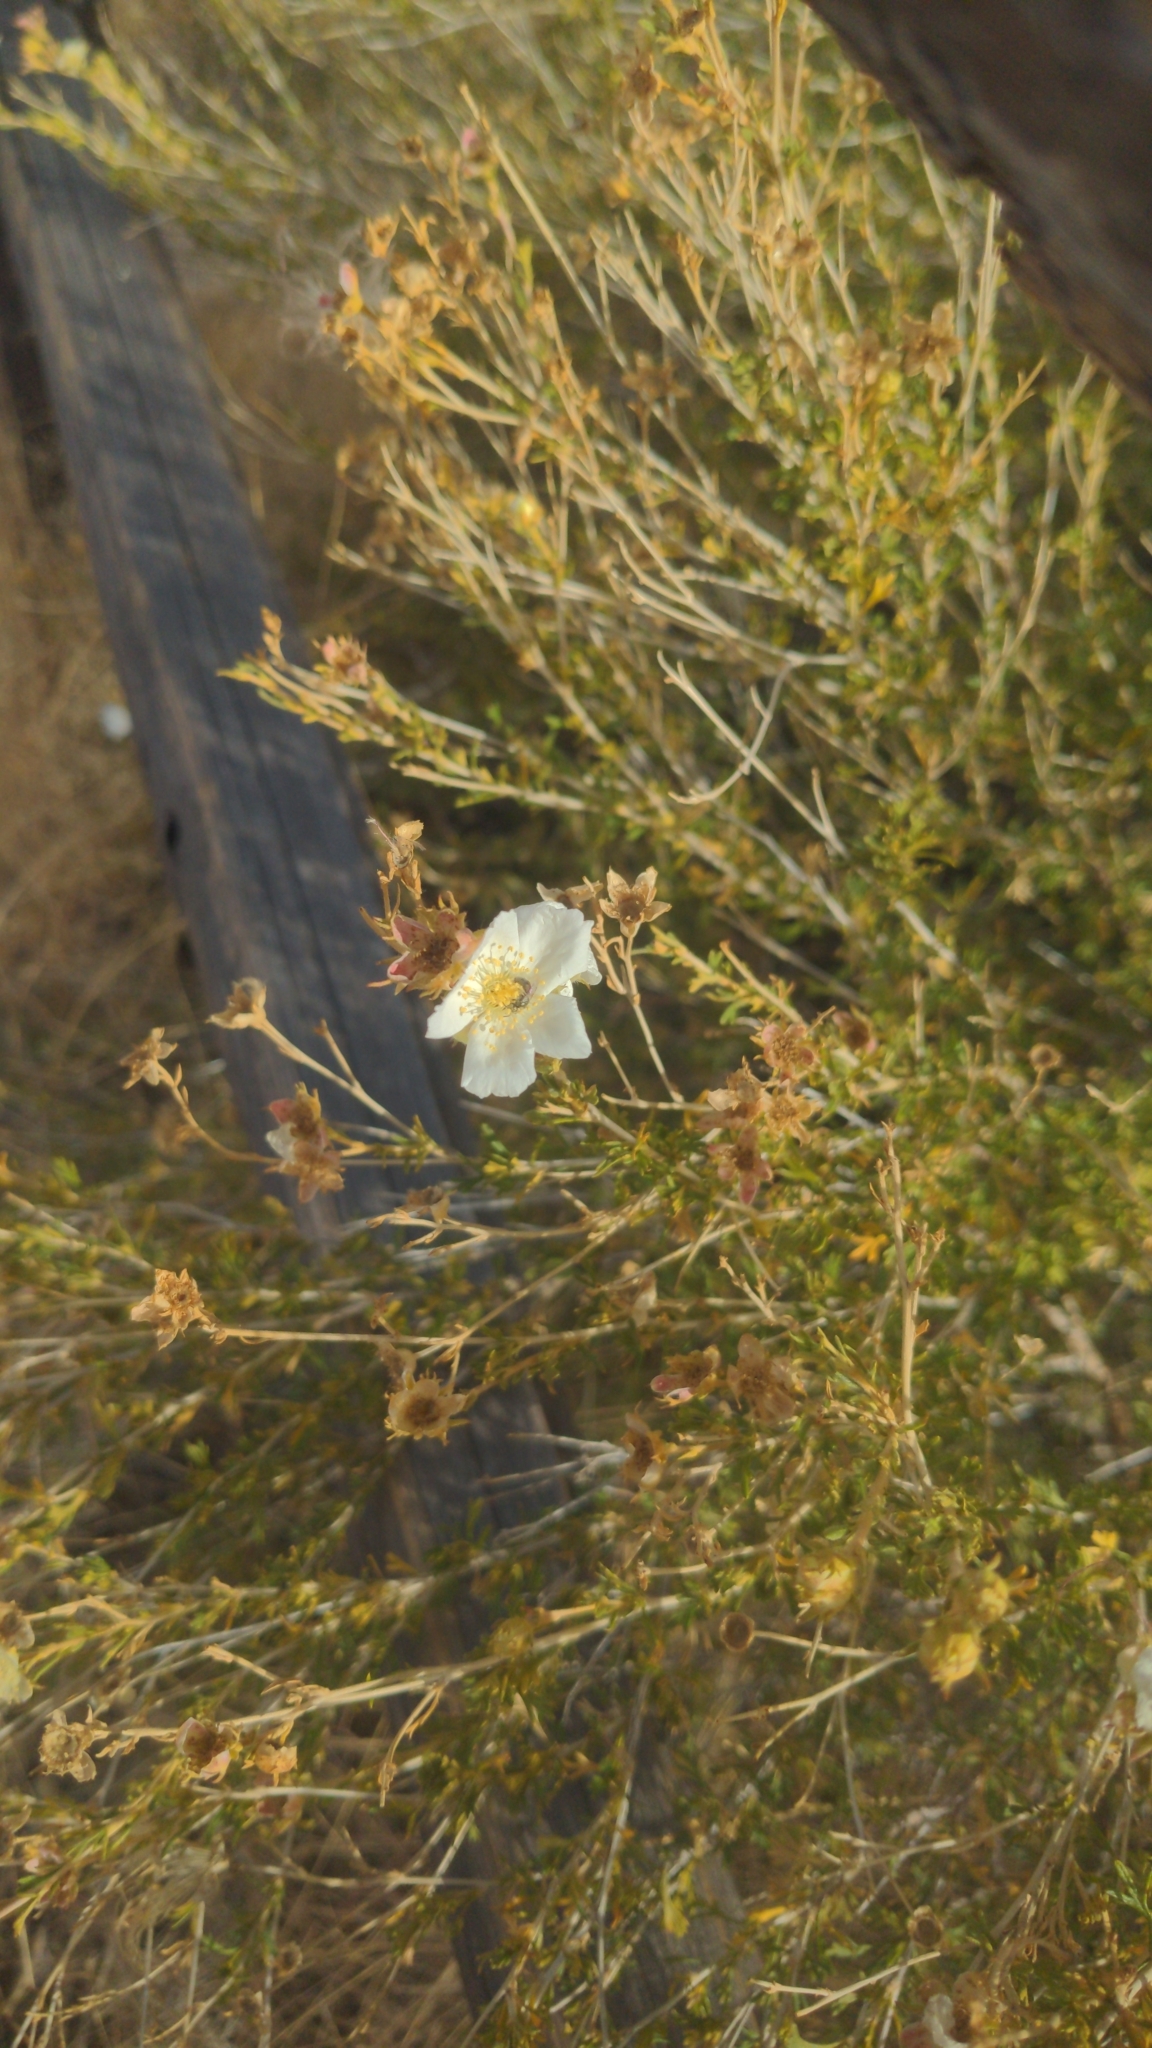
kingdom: Plantae
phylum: Tracheophyta
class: Magnoliopsida
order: Rosales
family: Rosaceae
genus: Fallugia
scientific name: Fallugia paradoxa
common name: Apache-plume
